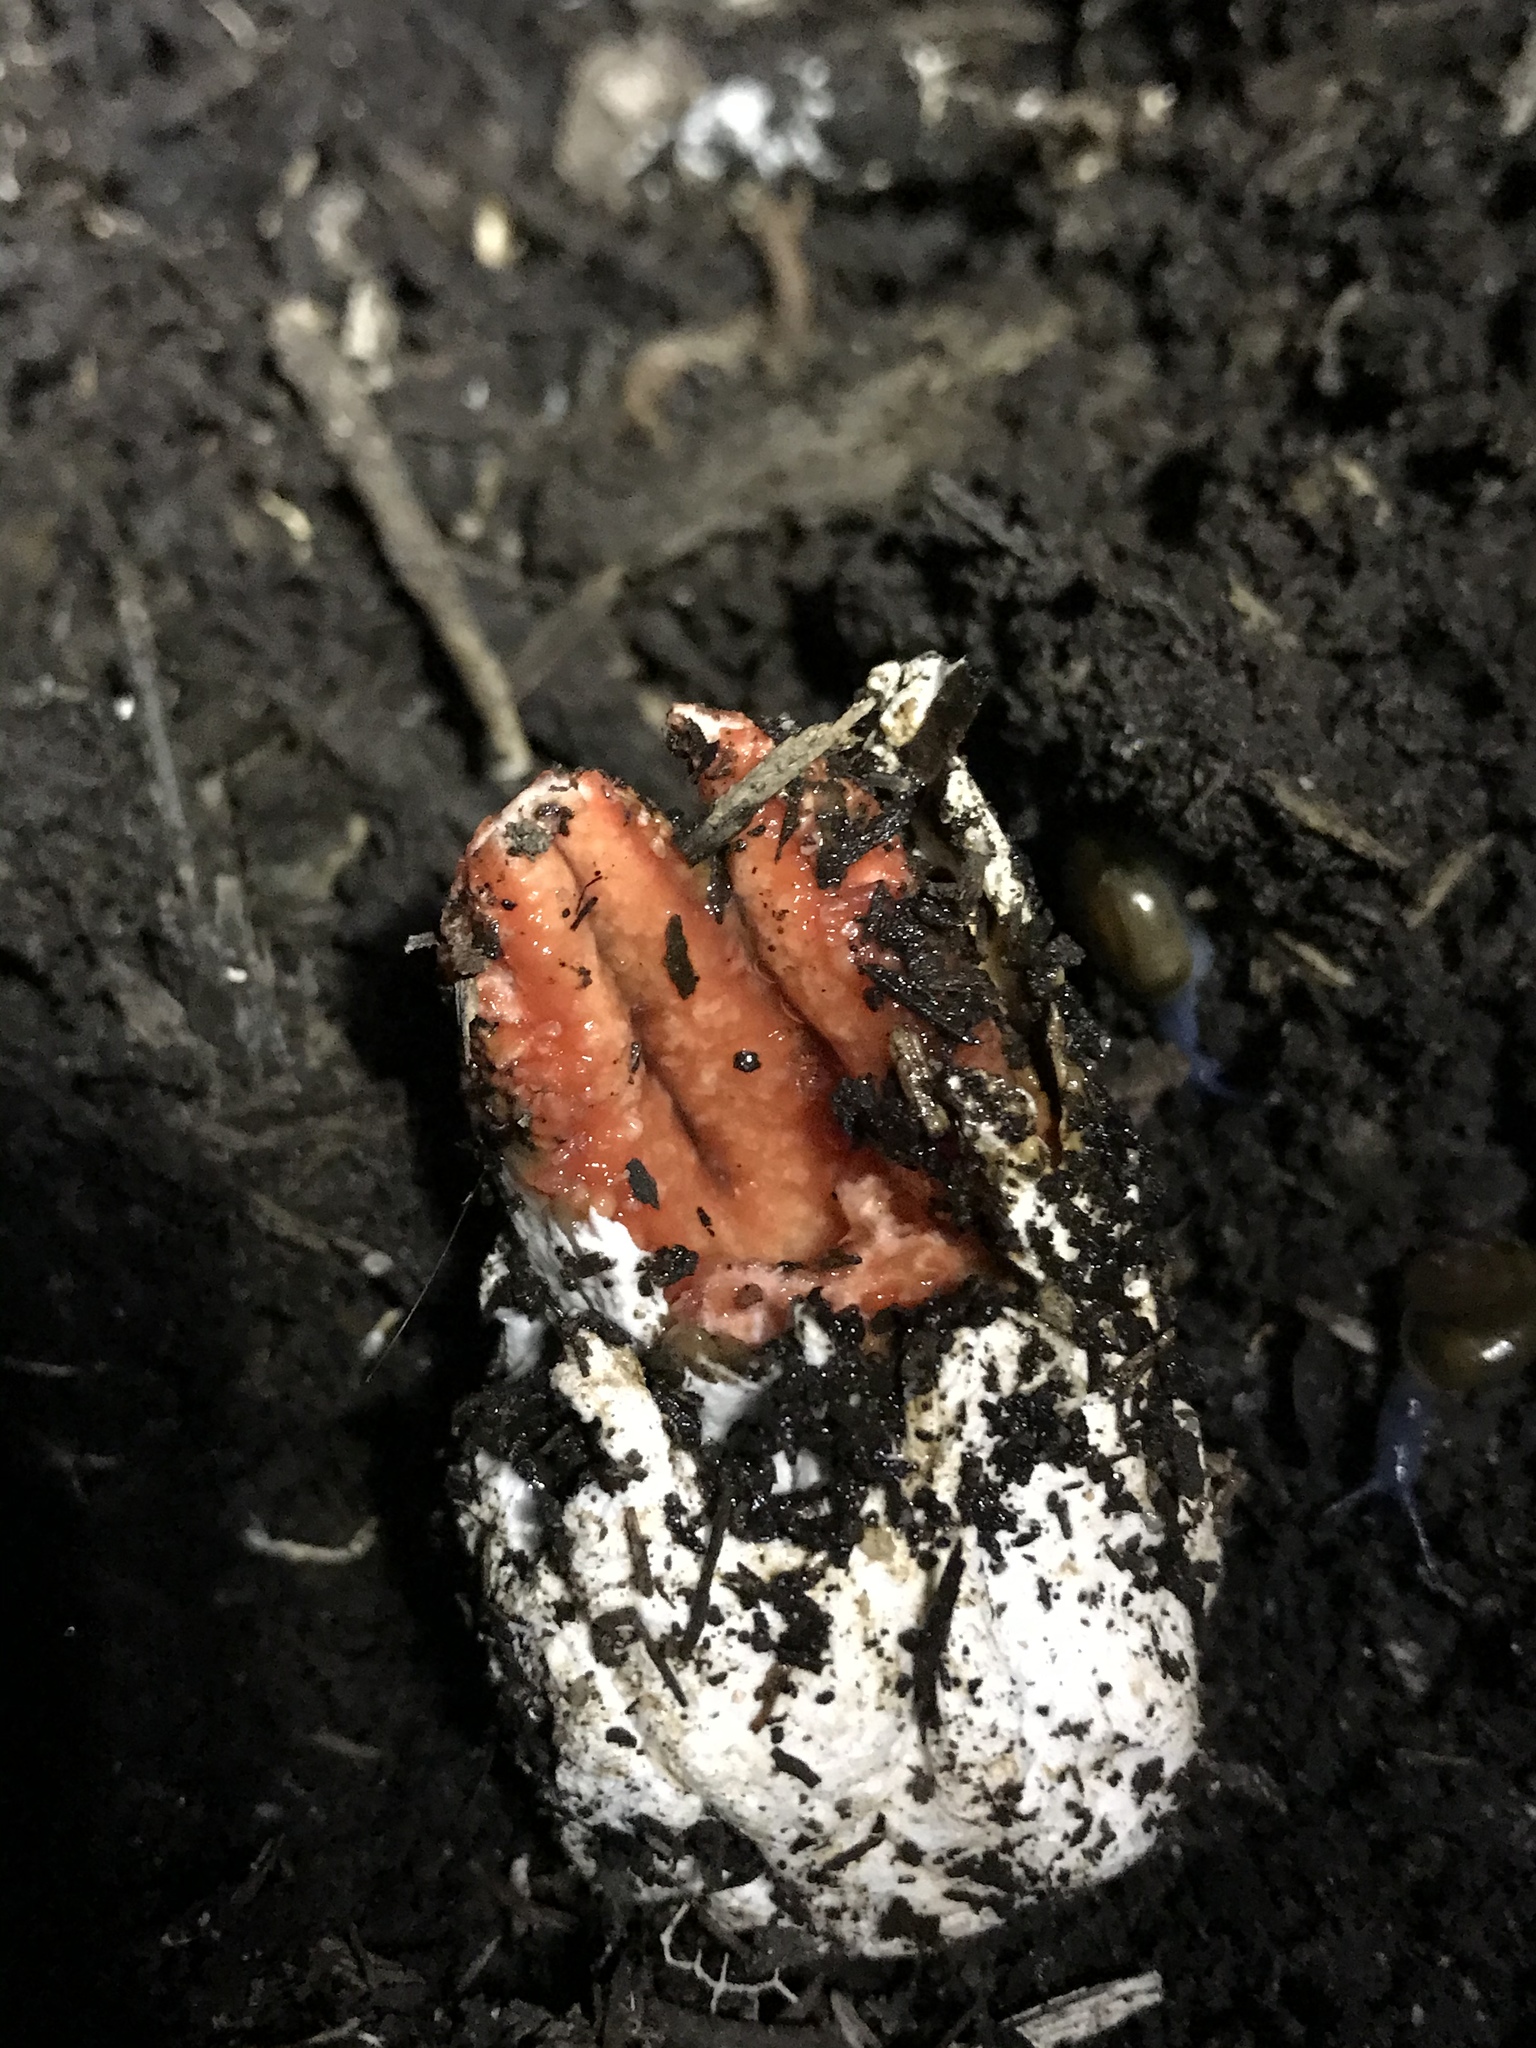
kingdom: Fungi
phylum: Basidiomycota
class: Agaricomycetes
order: Phallales
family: Phallaceae
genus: Lysurus
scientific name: Lysurus mokusin
